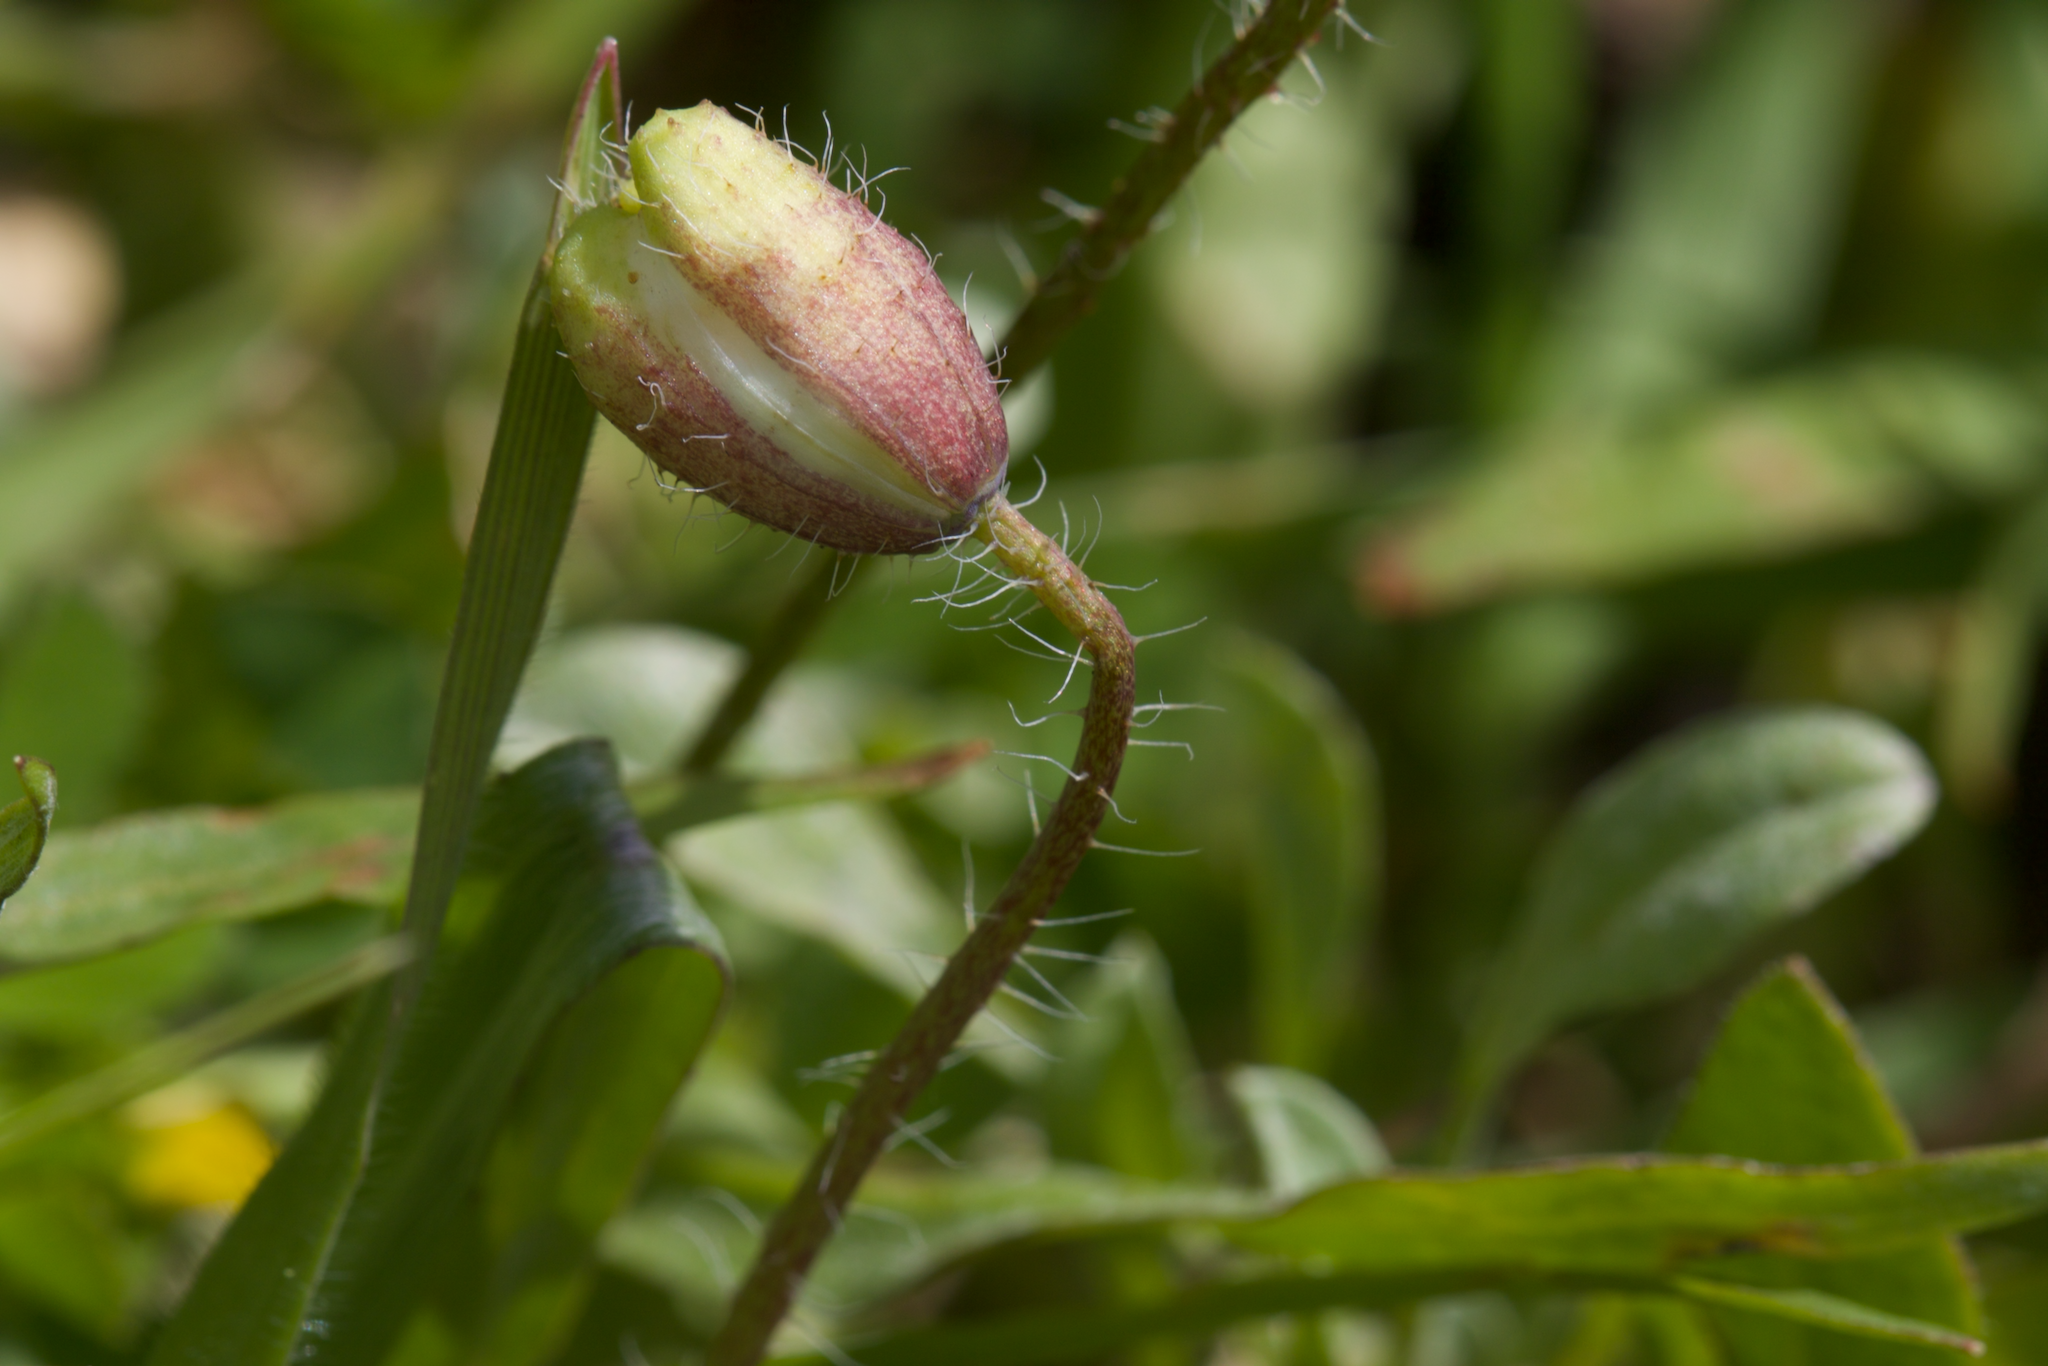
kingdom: Plantae
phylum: Tracheophyta
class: Magnoliopsida
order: Ranunculales
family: Papaveraceae
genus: Platystemon
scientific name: Platystemon californicus
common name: Cream-cups
